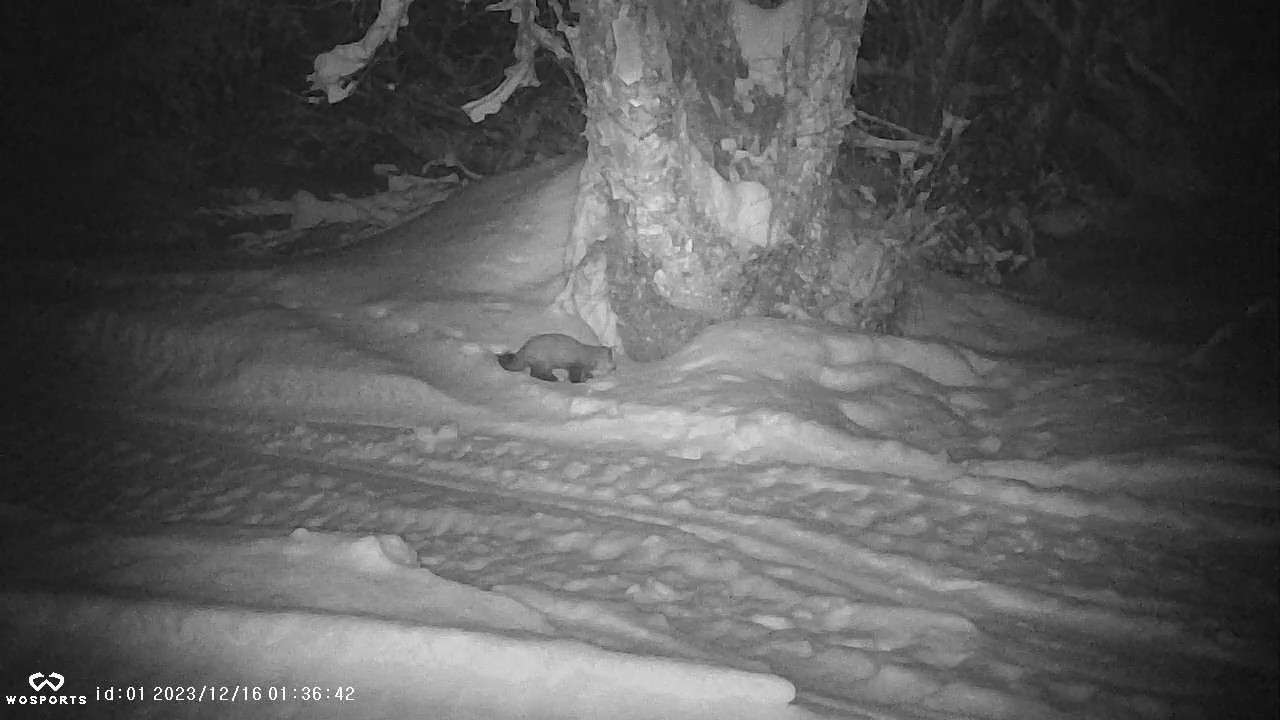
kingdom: Animalia
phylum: Chordata
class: Mammalia
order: Carnivora
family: Mustelidae
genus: Martes
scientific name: Martes americana
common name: American marten
